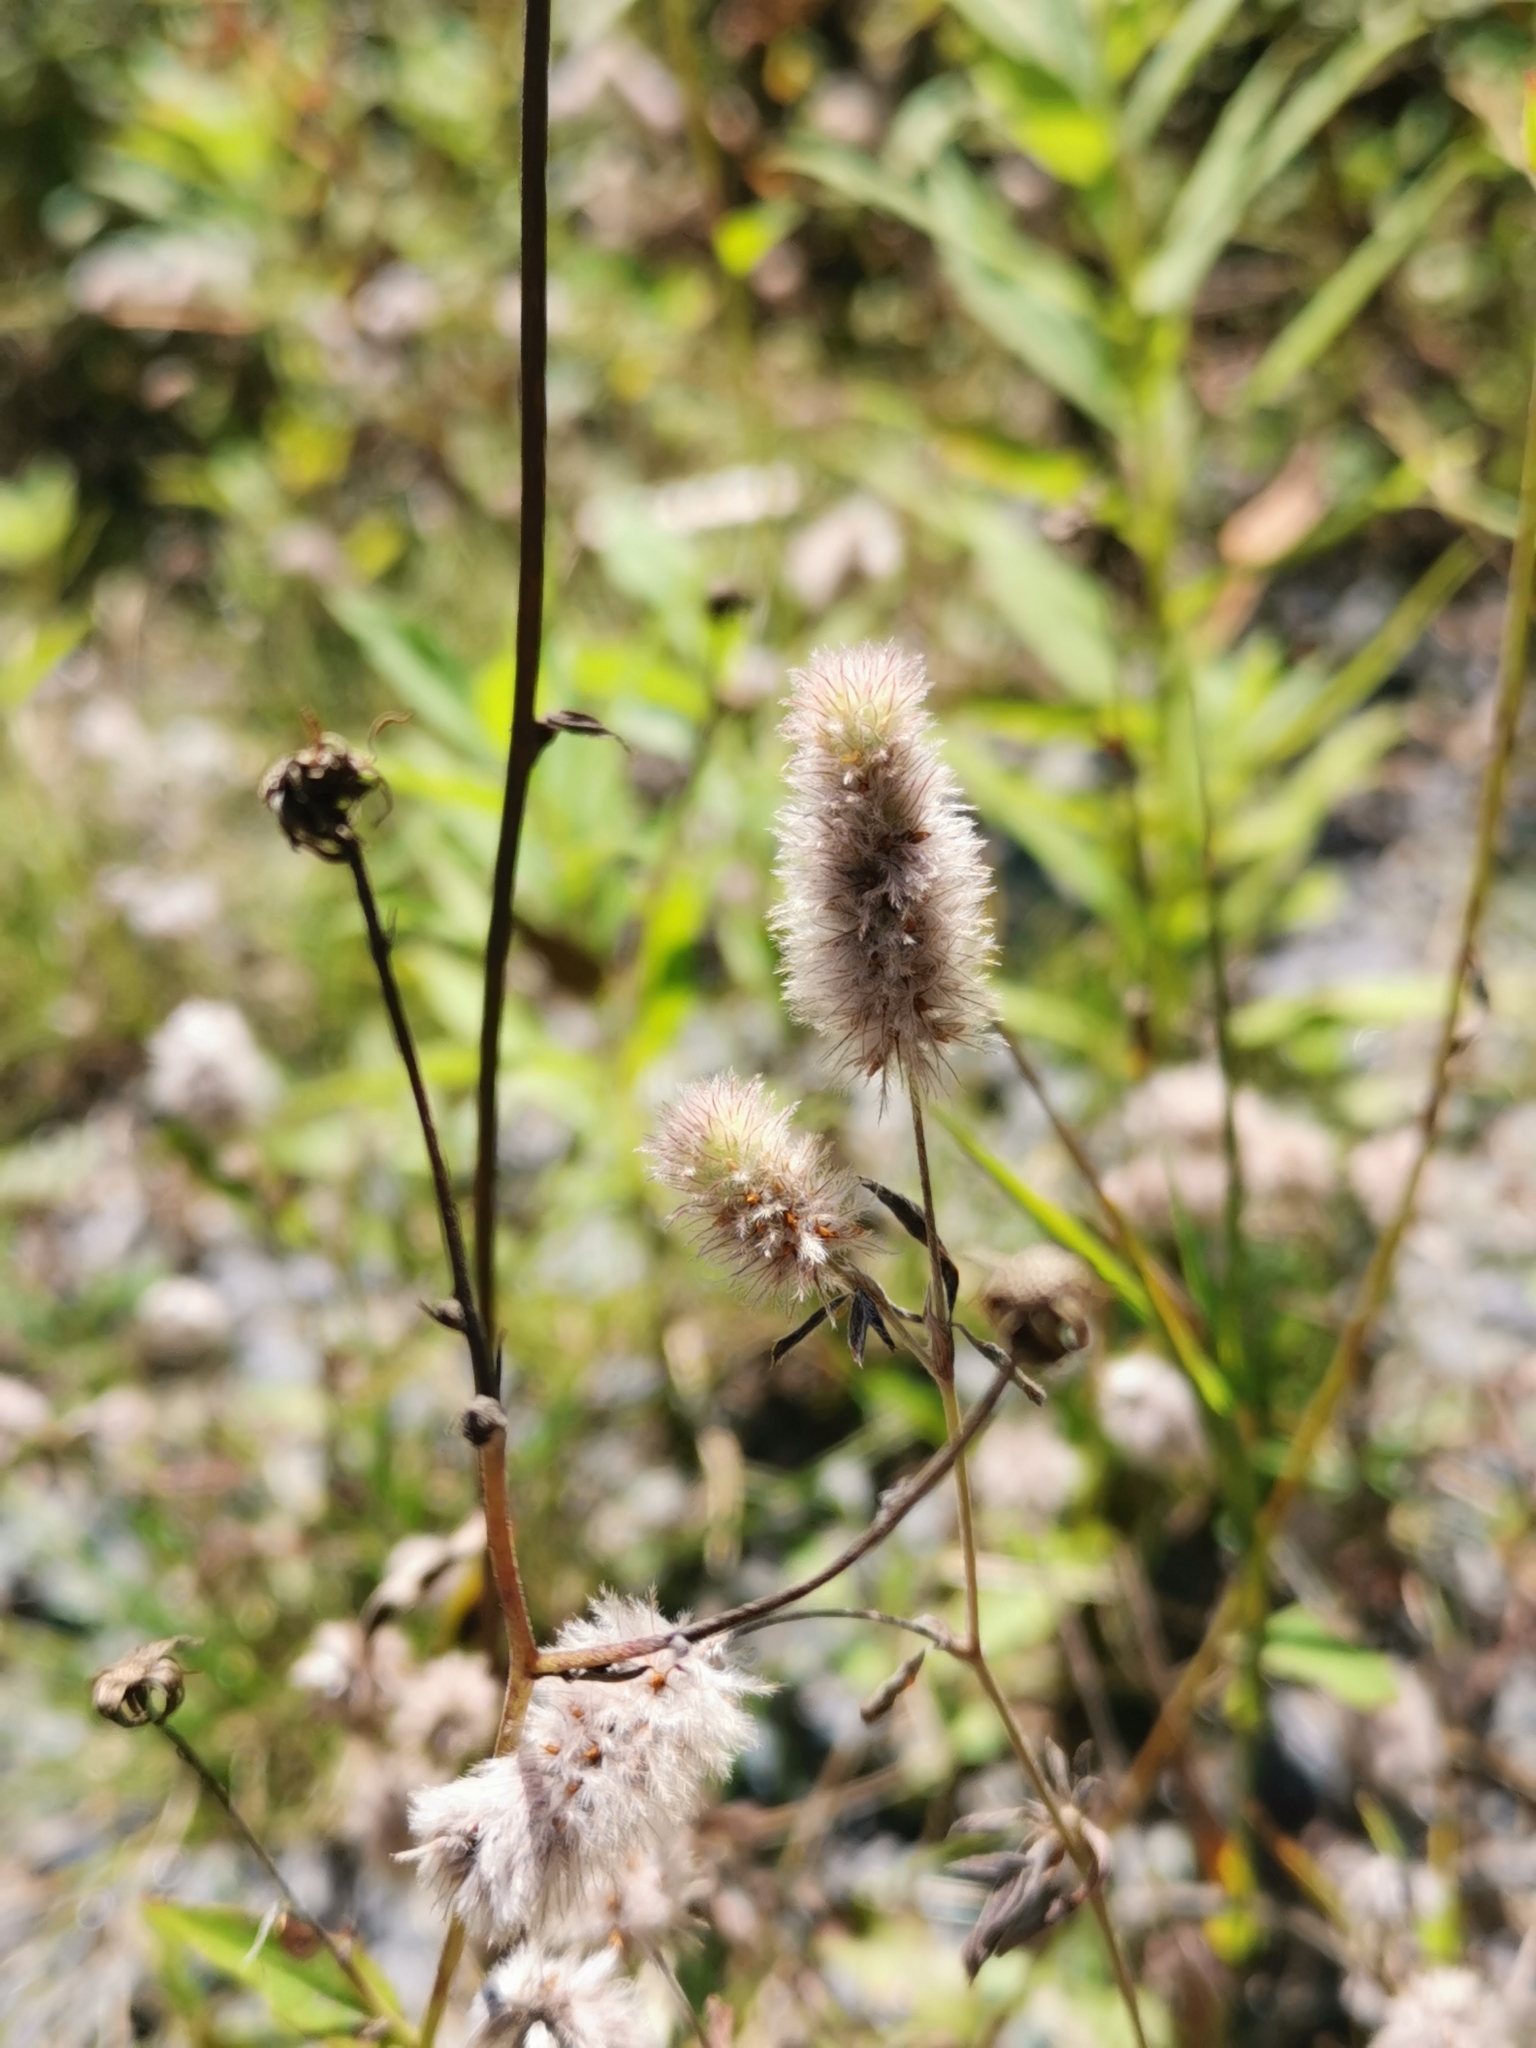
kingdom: Plantae
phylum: Tracheophyta
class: Magnoliopsida
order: Fabales
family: Fabaceae
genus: Trifolium
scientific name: Trifolium arvense
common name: Hare's-foot clover
